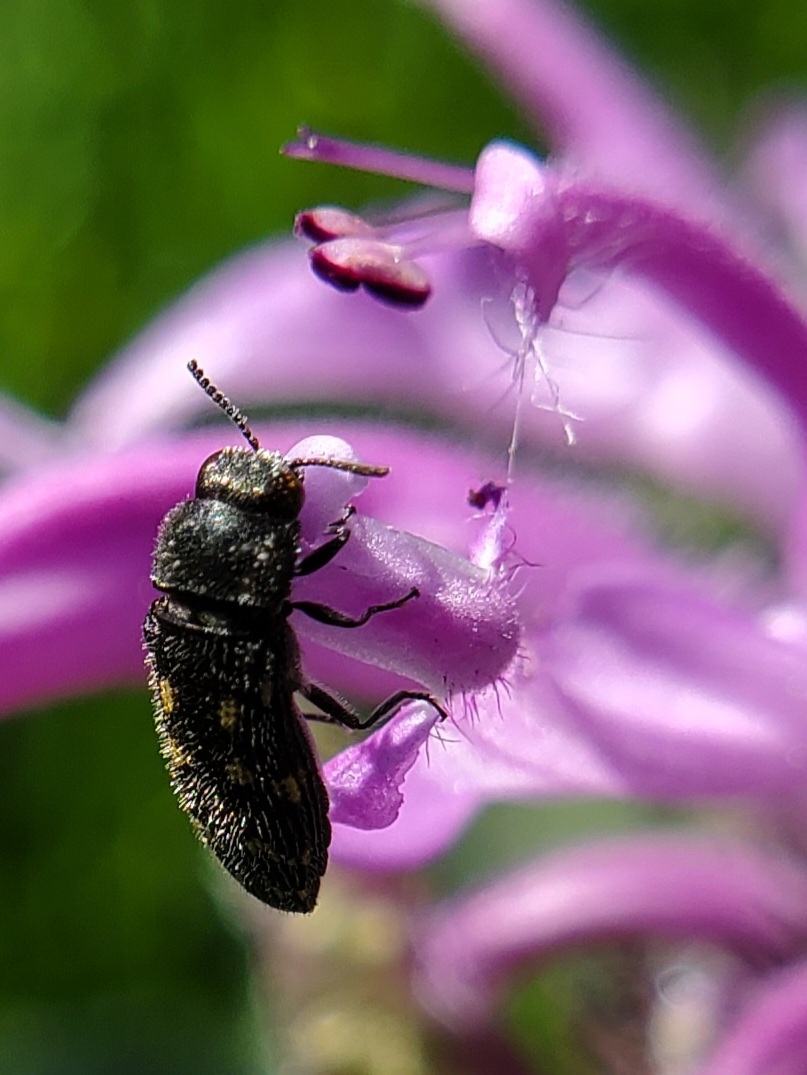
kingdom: Animalia
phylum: Arthropoda
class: Insecta
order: Coleoptera
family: Buprestidae
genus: Acmaeodera
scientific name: Acmaeodera tubulus
